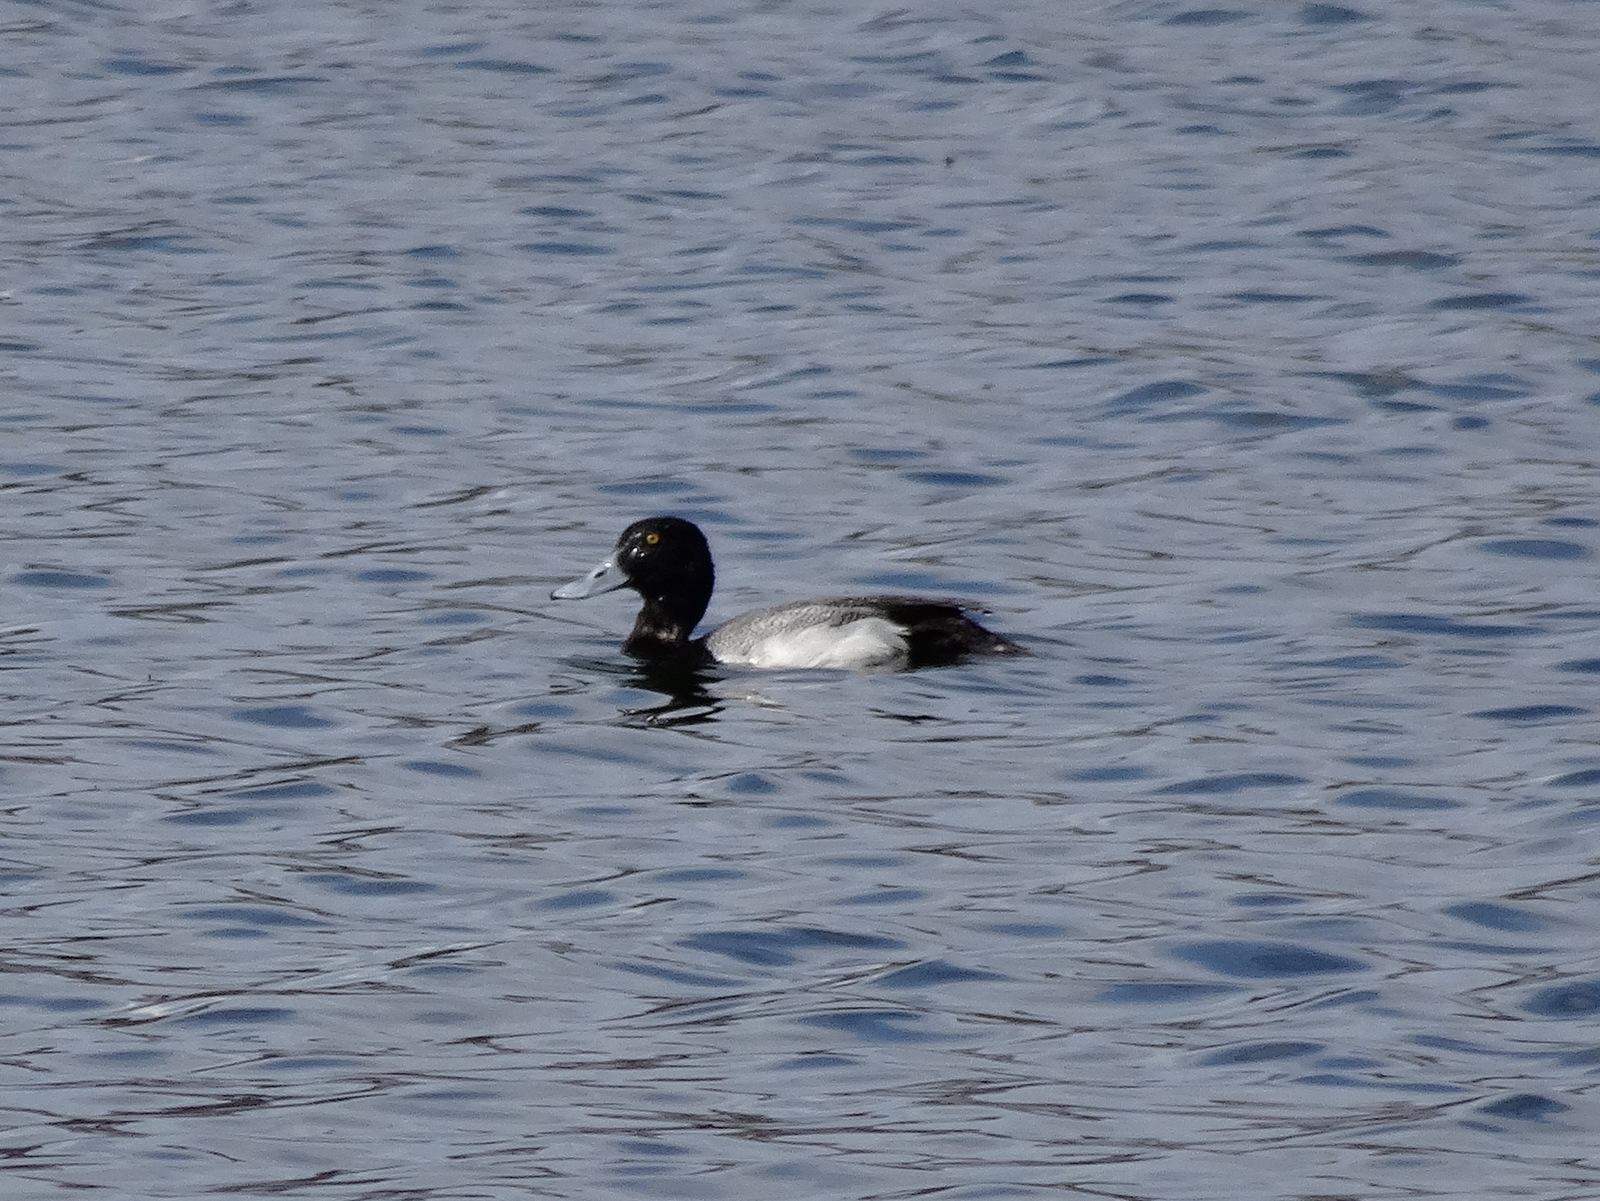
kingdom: Animalia
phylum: Chordata
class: Aves
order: Anseriformes
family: Anatidae
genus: Aythya
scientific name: Aythya marila
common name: Greater scaup
